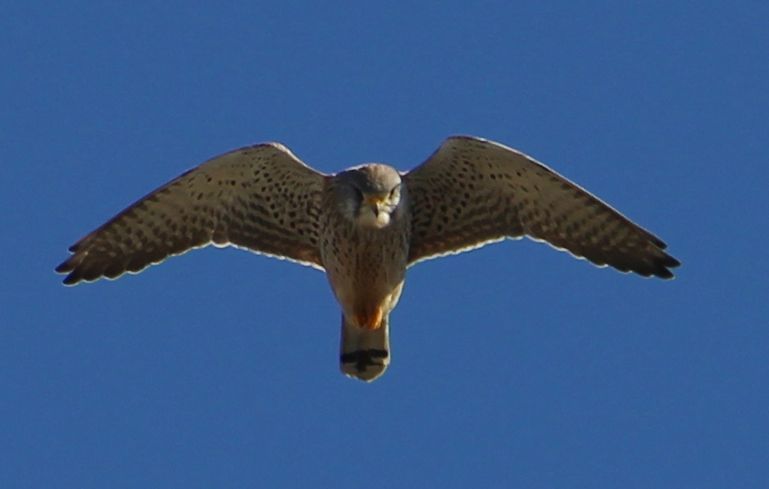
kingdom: Animalia
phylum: Chordata
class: Aves
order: Falconiformes
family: Falconidae
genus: Falco
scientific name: Falco tinnunculus
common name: Common kestrel
